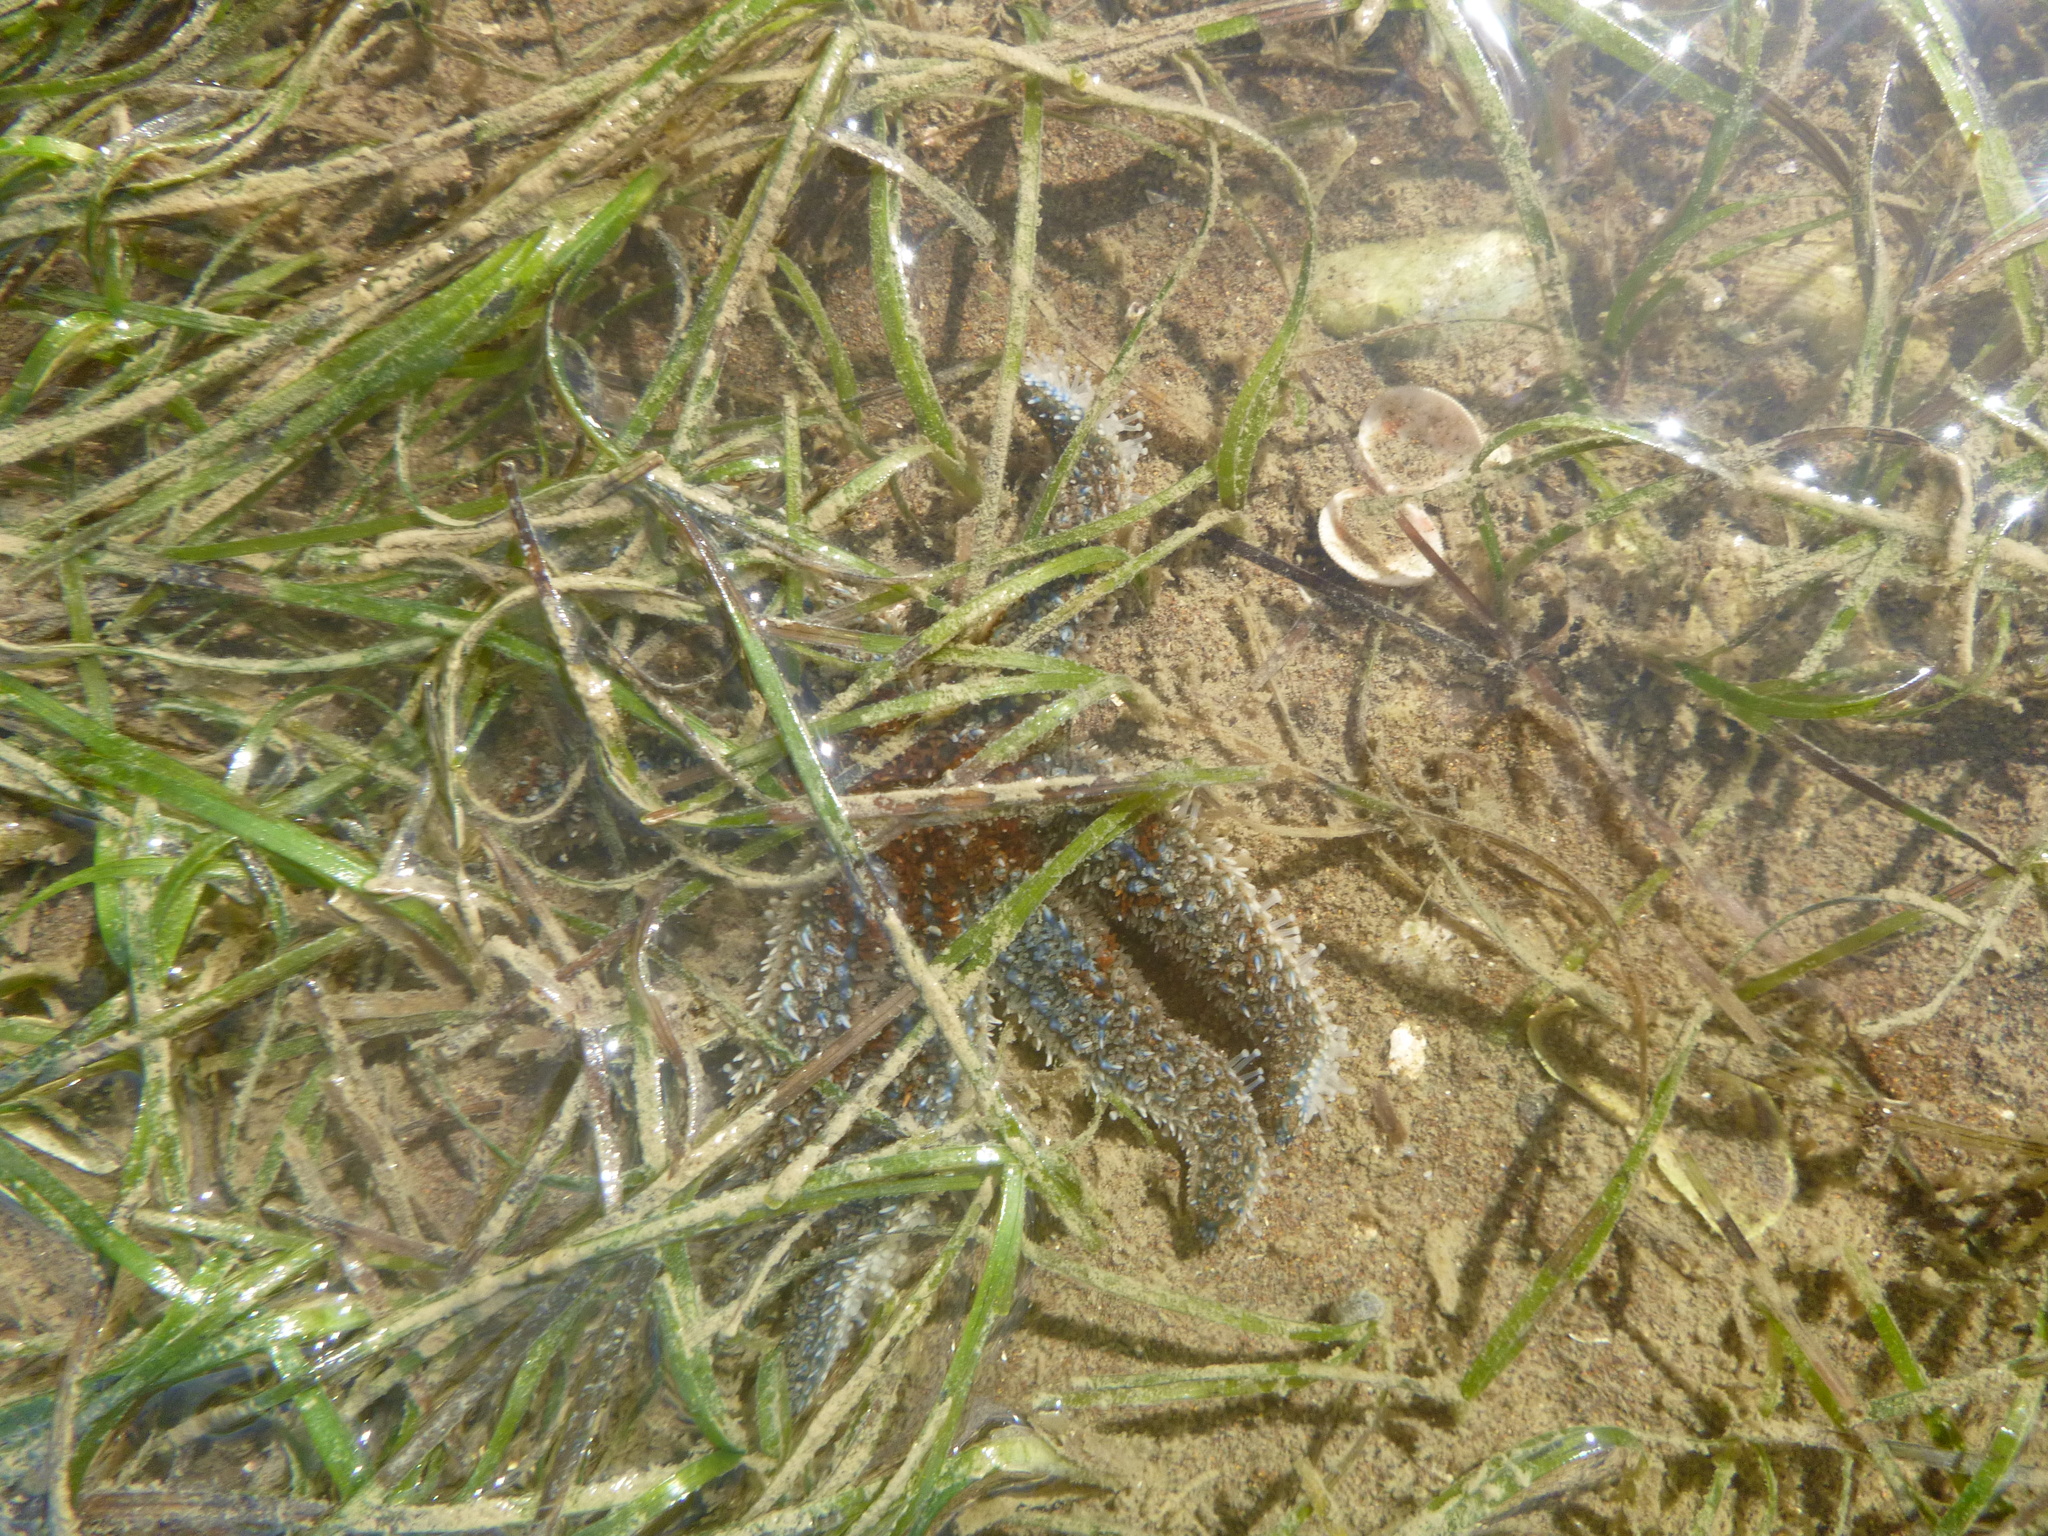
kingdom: Animalia
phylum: Echinodermata
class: Asteroidea
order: Forcipulatida
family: Asteriidae
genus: Coscinasterias
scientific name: Coscinasterias muricata
